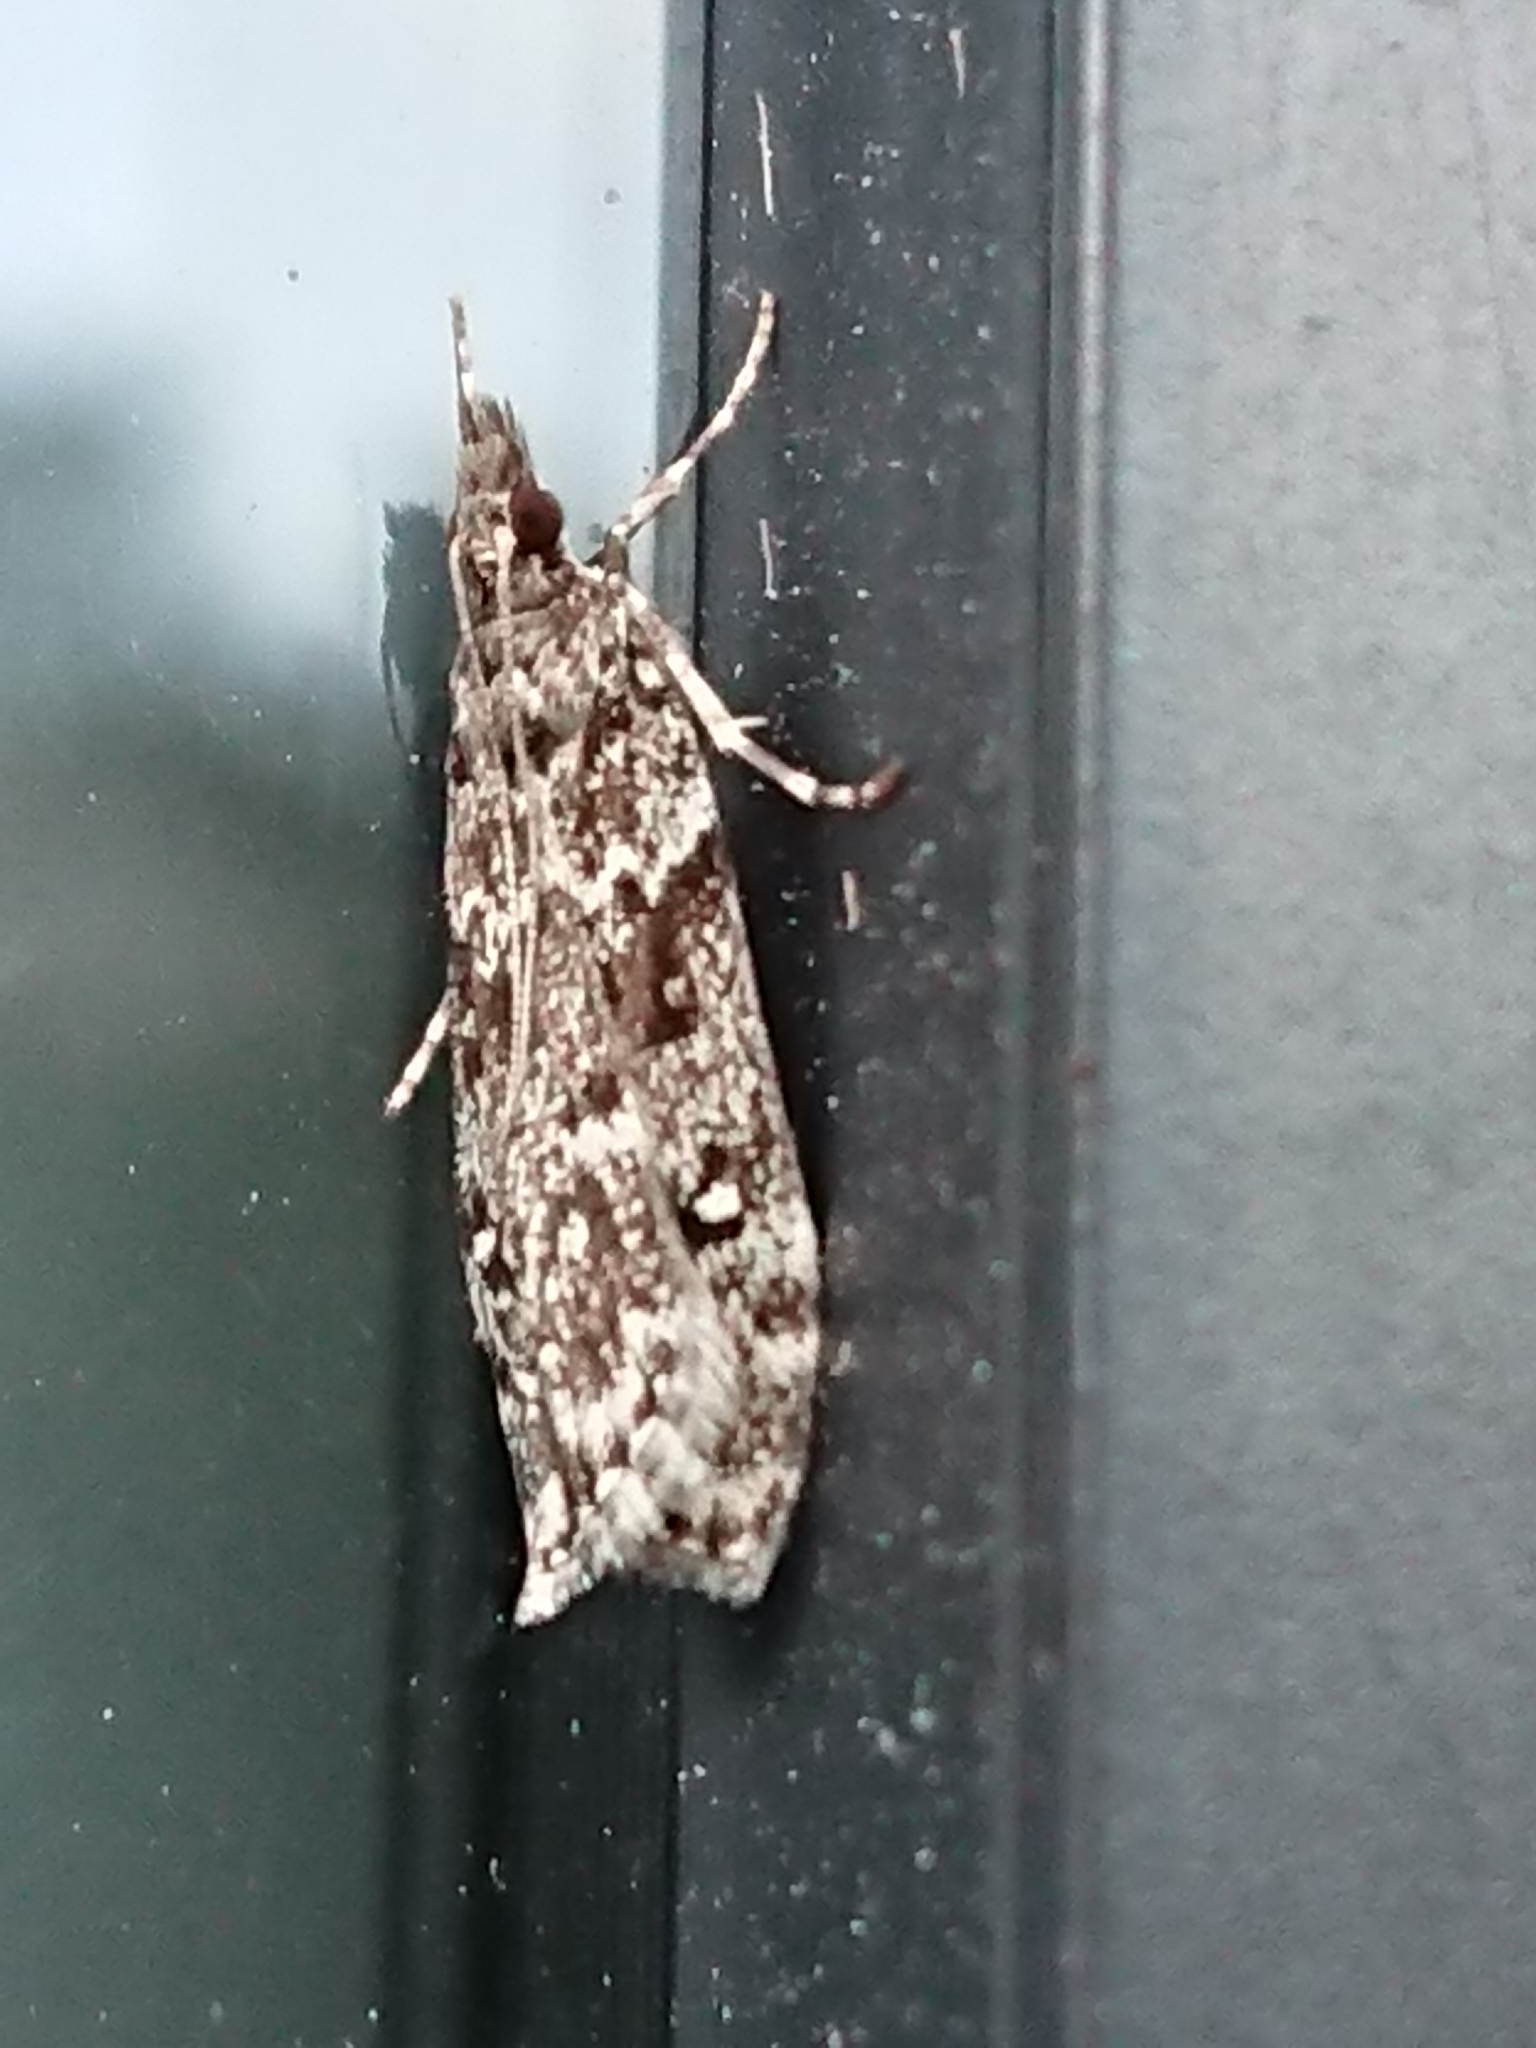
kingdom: Animalia
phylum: Arthropoda
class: Insecta
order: Lepidoptera
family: Crambidae
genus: Eudonia
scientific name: Eudonia philerga
